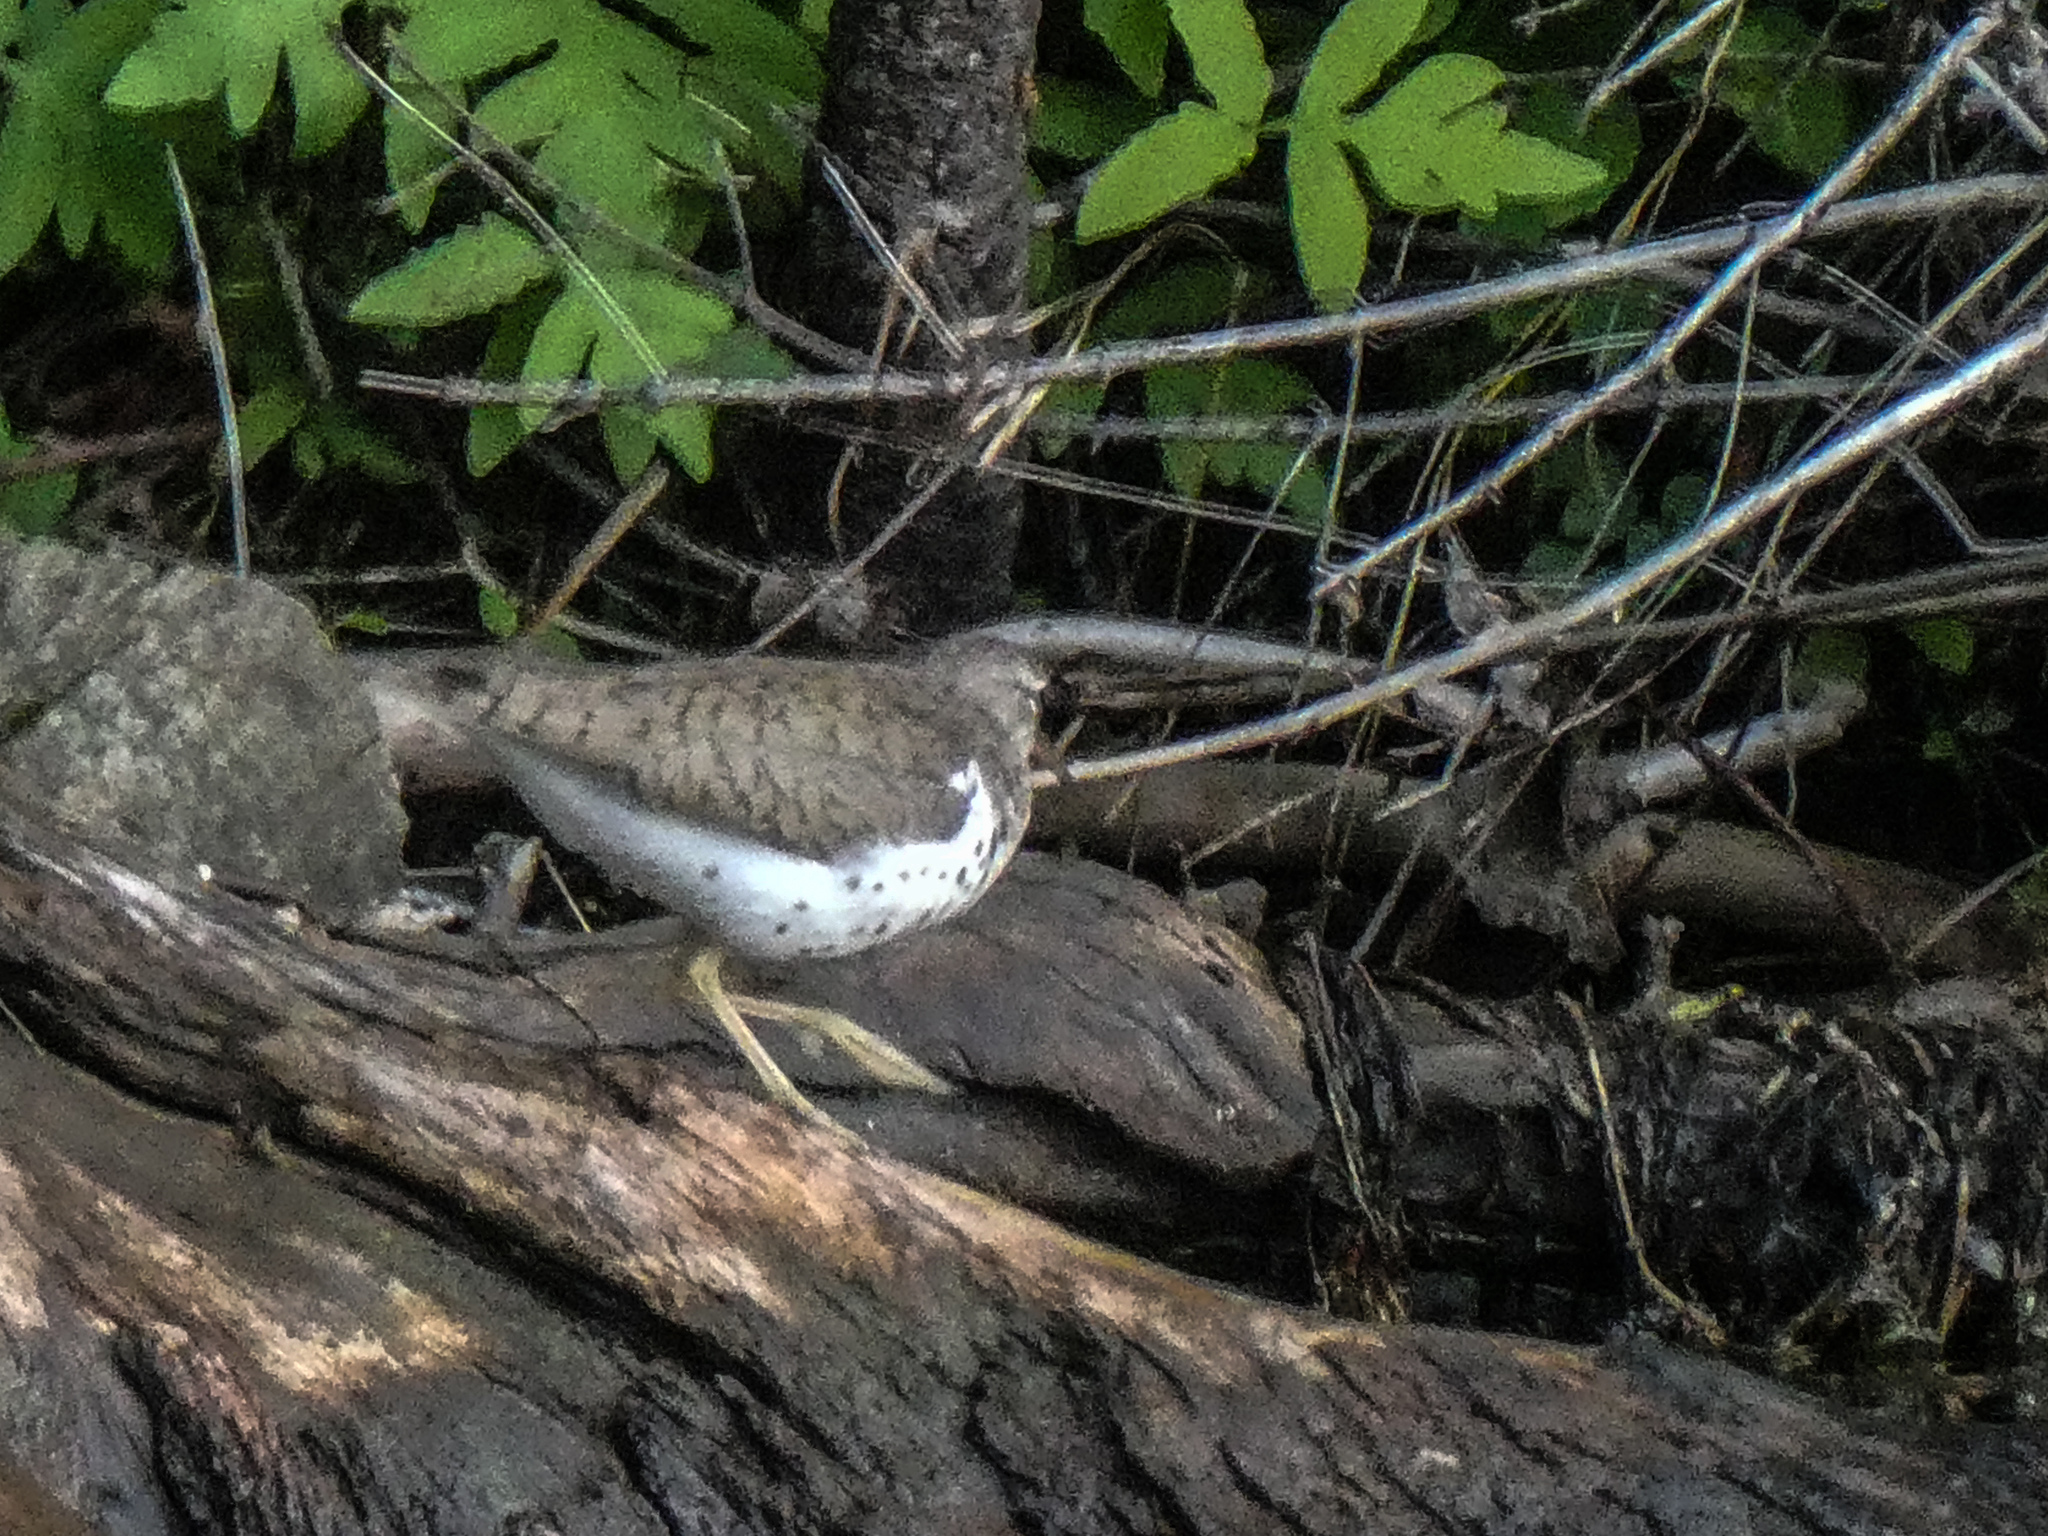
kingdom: Animalia
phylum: Chordata
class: Aves
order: Charadriiformes
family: Scolopacidae
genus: Actitis
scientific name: Actitis macularius
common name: Spotted sandpiper
